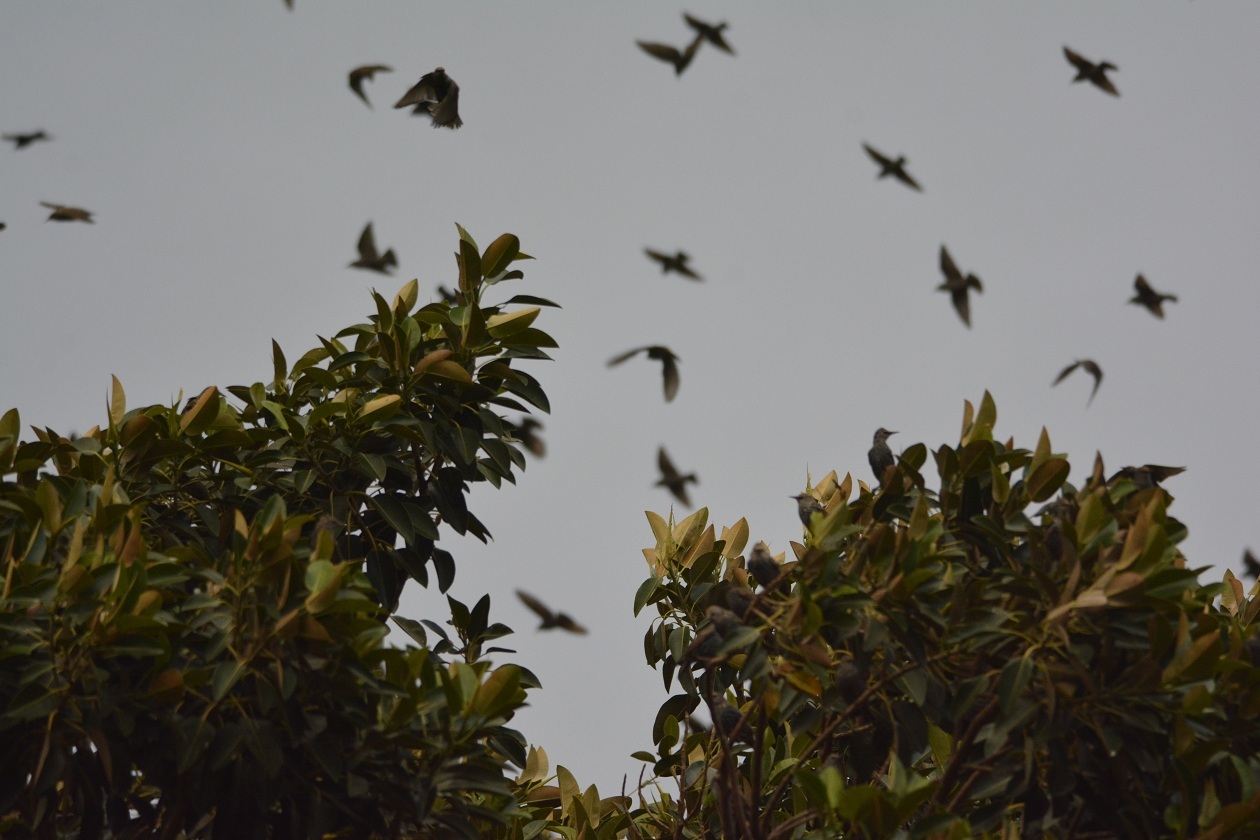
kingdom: Animalia
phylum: Chordata
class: Aves
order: Passeriformes
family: Sturnidae
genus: Sturnus
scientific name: Sturnus vulgaris
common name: Common starling
